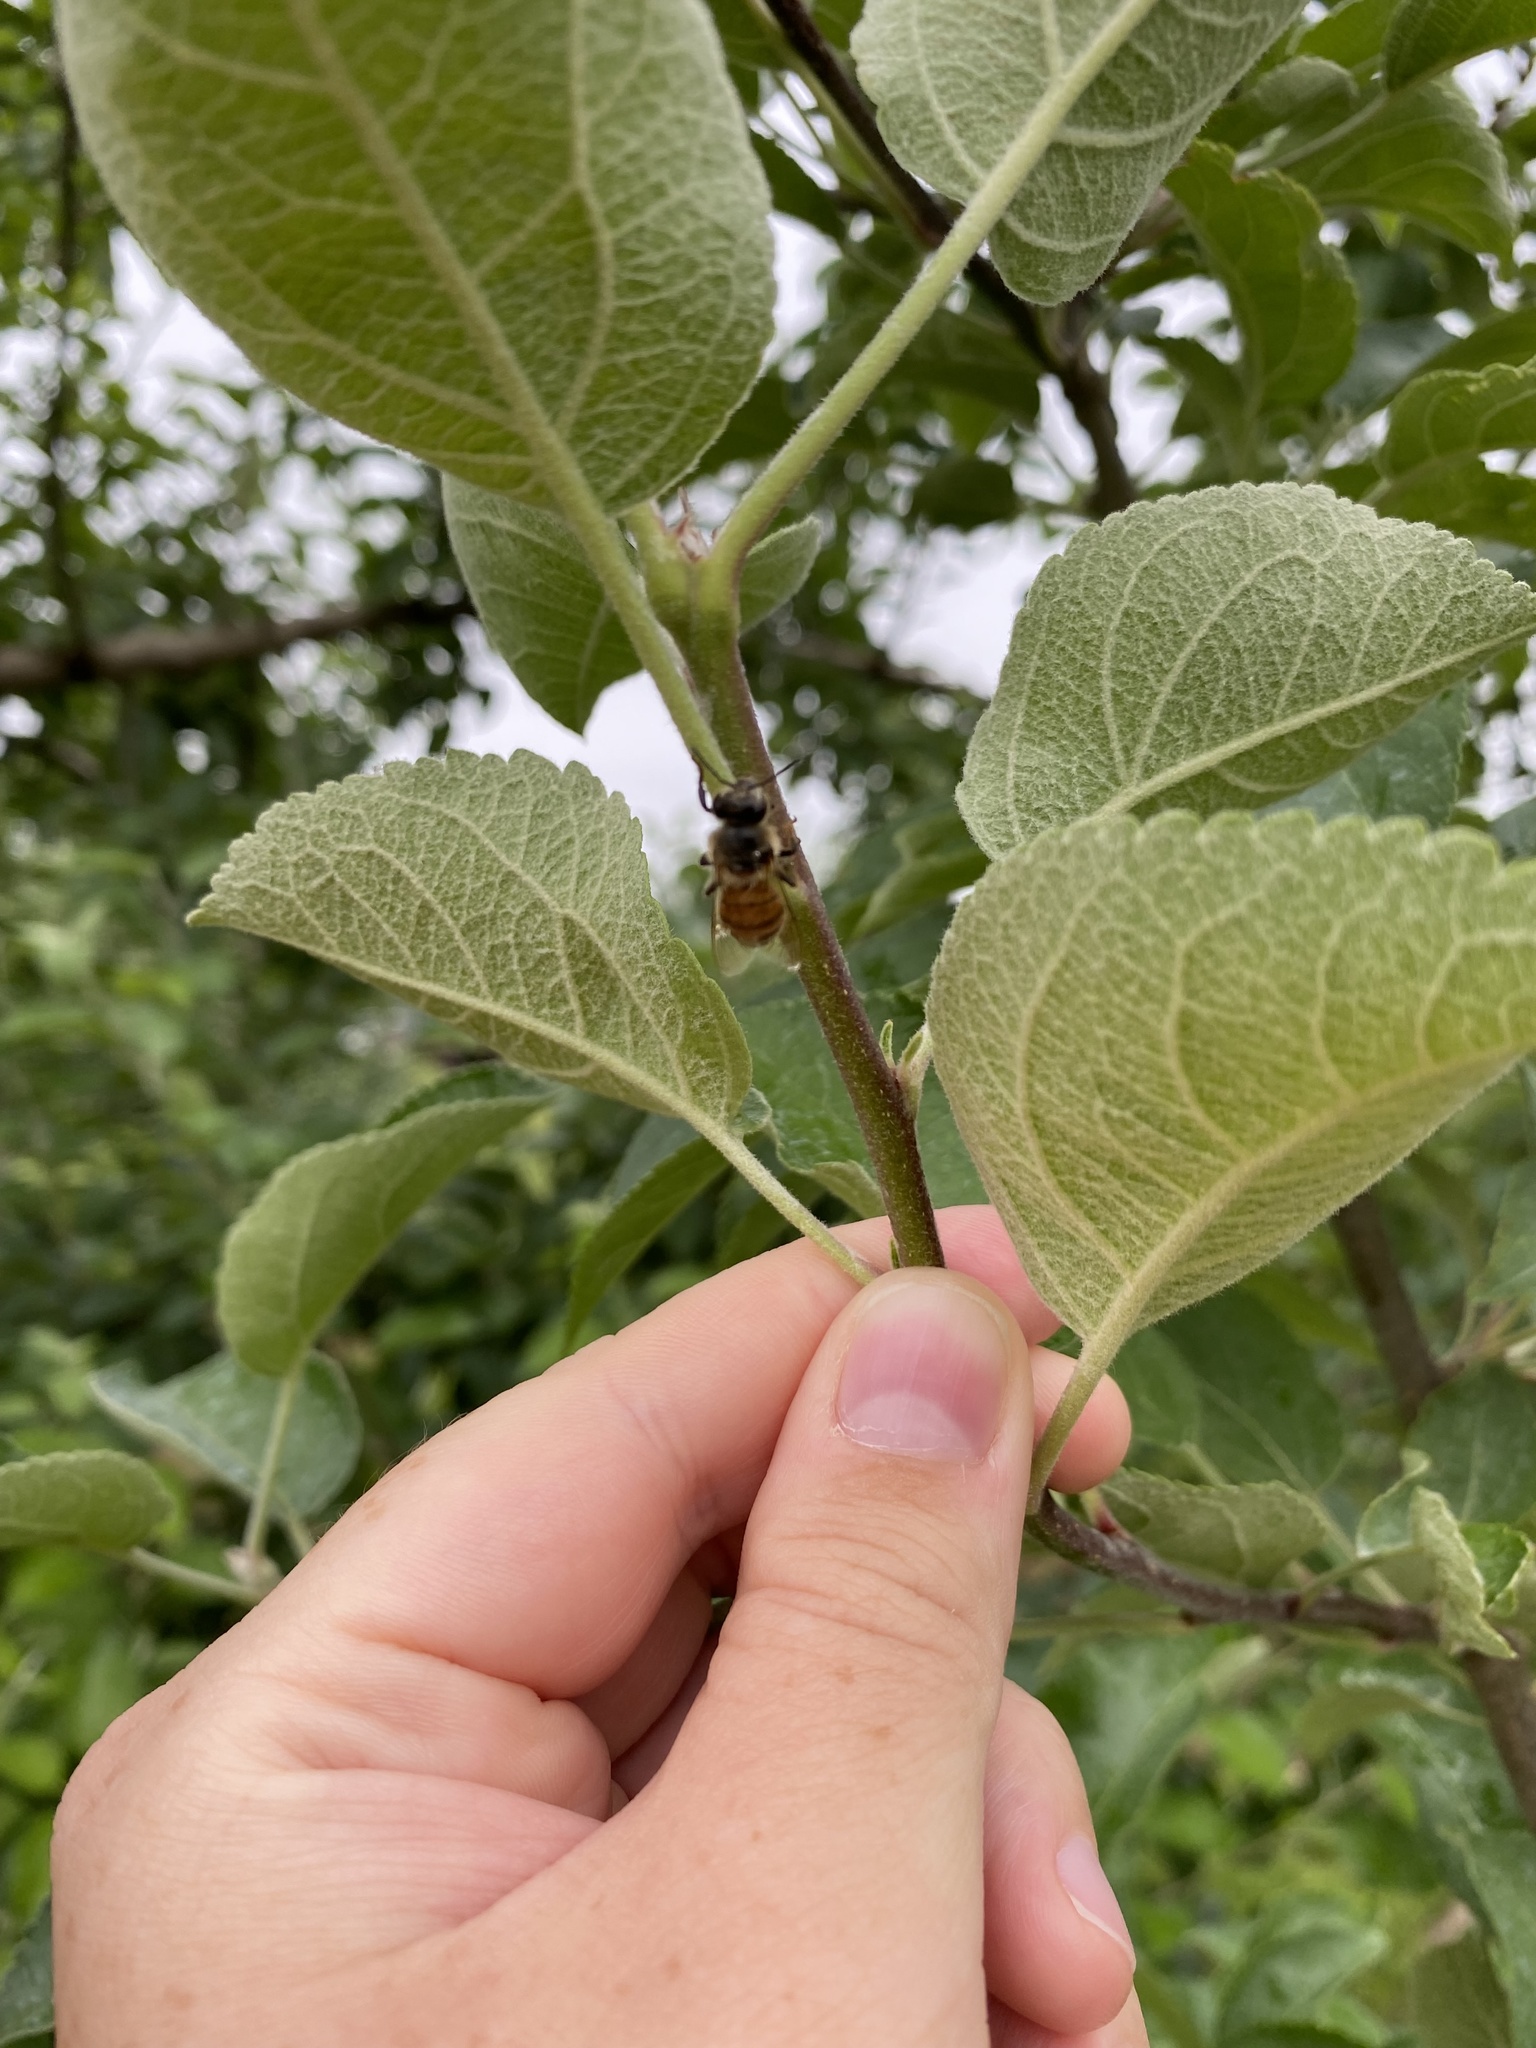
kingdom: Animalia
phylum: Arthropoda
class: Insecta
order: Hymenoptera
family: Apidae
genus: Apis
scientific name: Apis mellifera
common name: Honey bee
